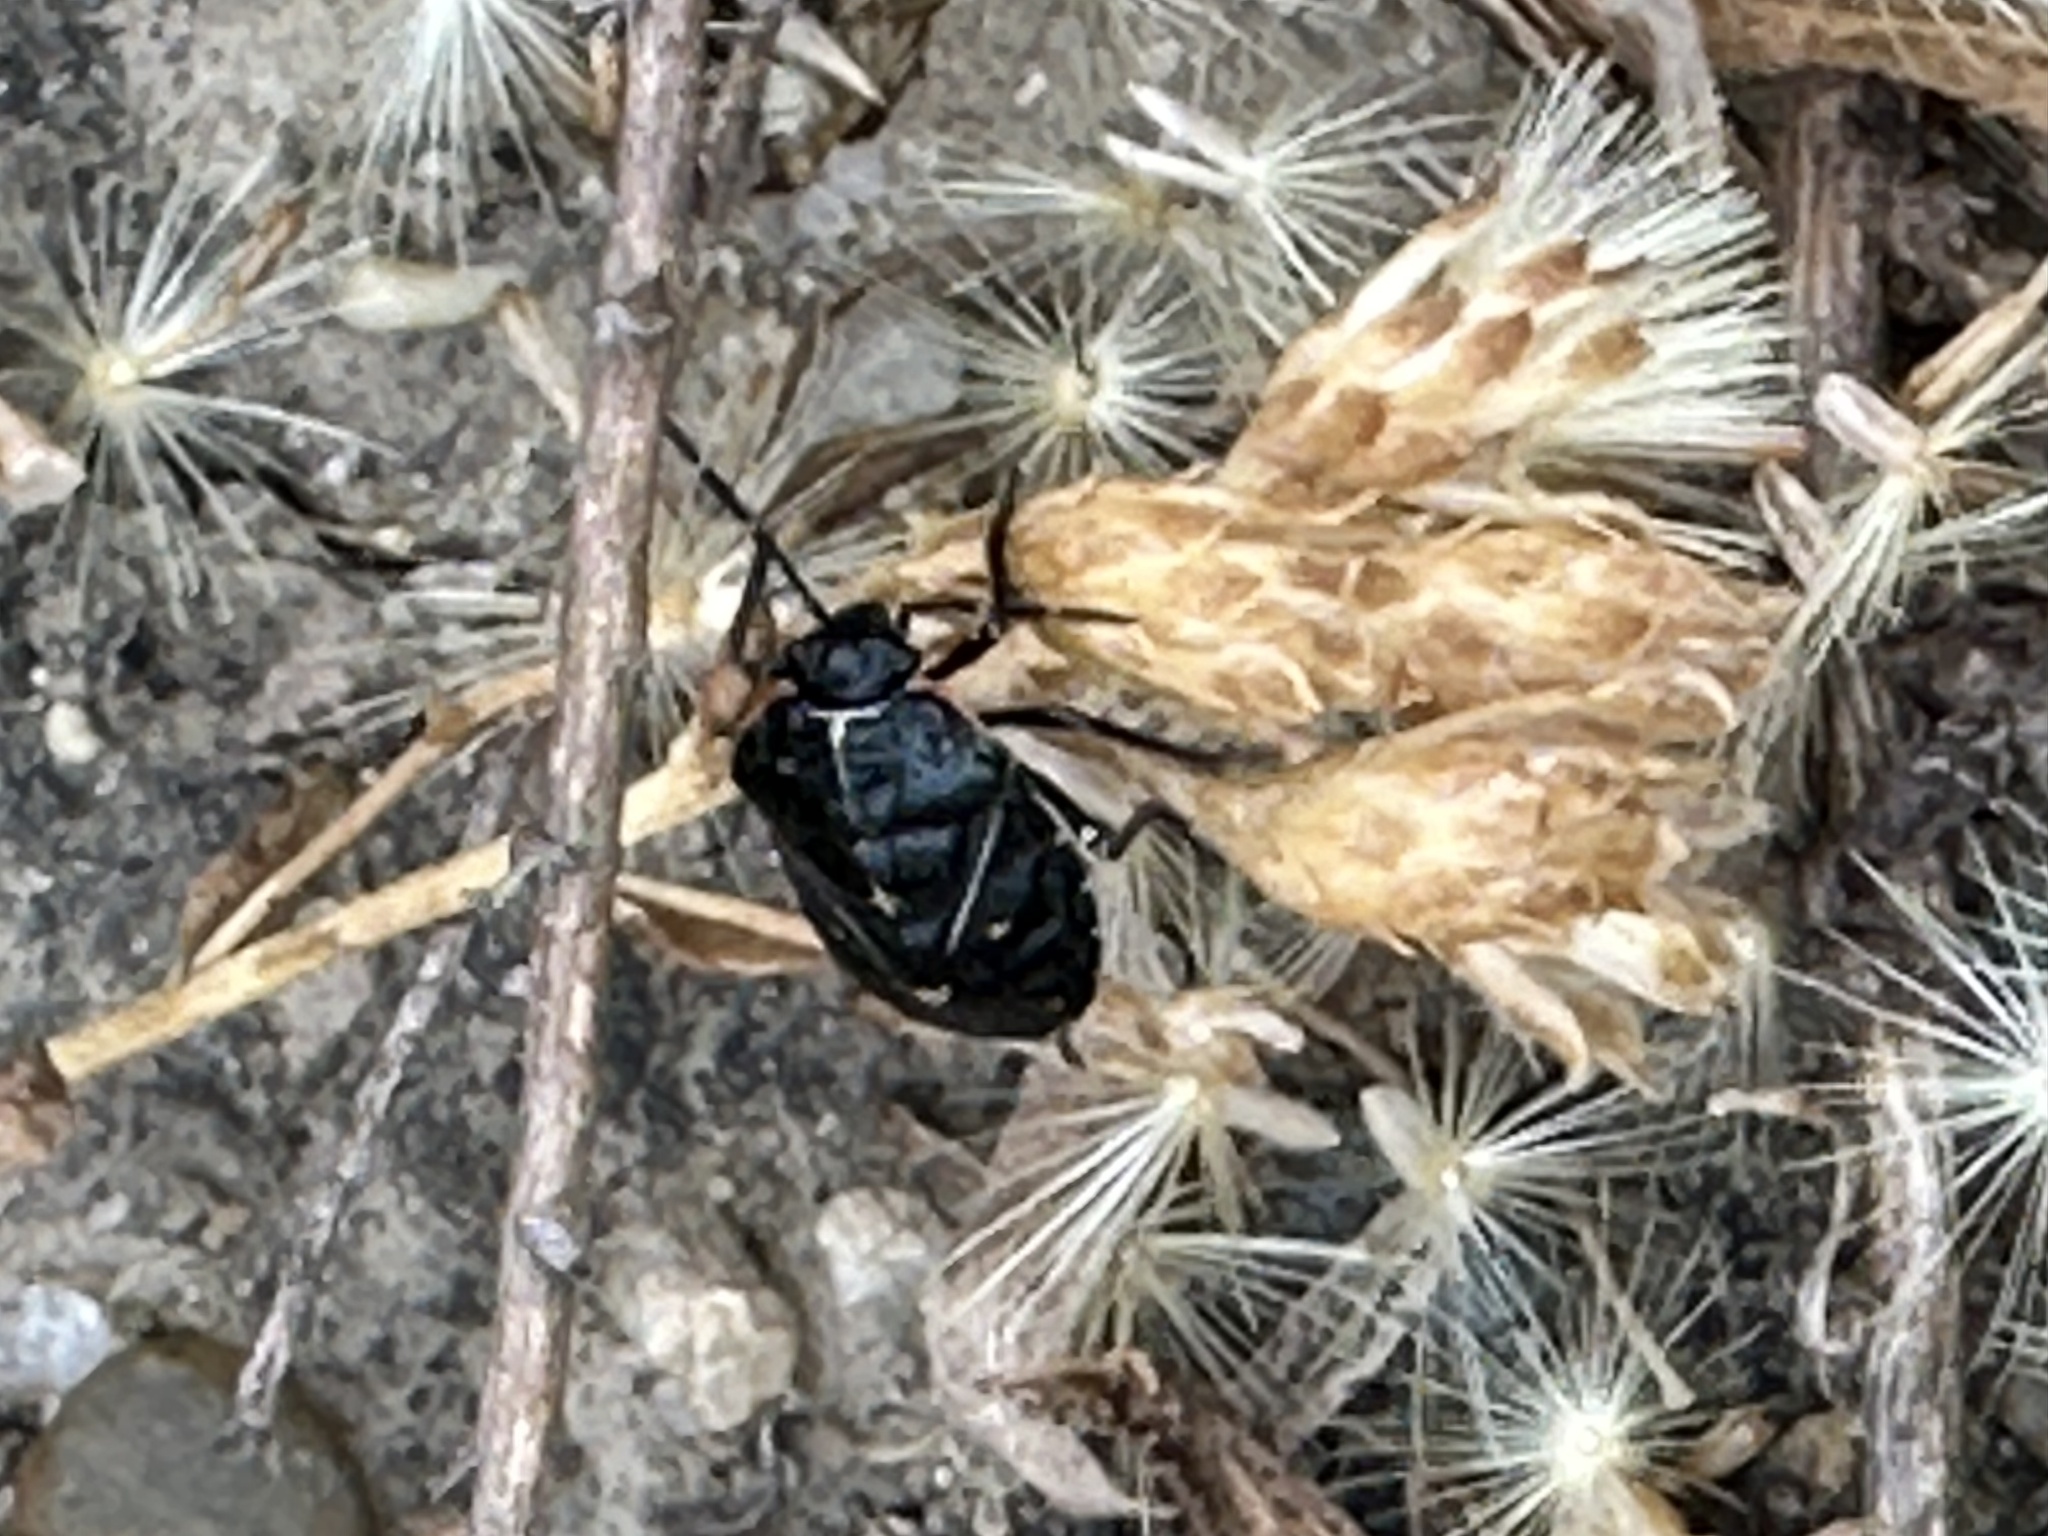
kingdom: Animalia
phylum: Arthropoda
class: Insecta
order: Hemiptera
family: Pentatomidae
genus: Murgantia
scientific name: Murgantia histrionica
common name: Harlequin bug
